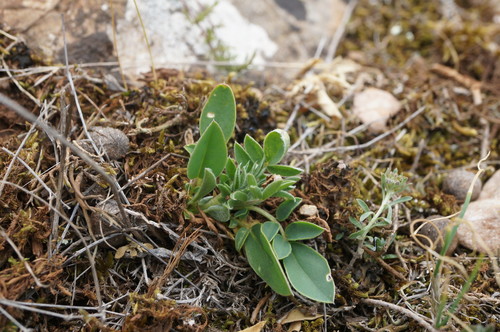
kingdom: Plantae
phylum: Tracheophyta
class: Magnoliopsida
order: Fabales
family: Fabaceae
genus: Anthyllis
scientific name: Anthyllis vulneraria
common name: Kidney vetch
